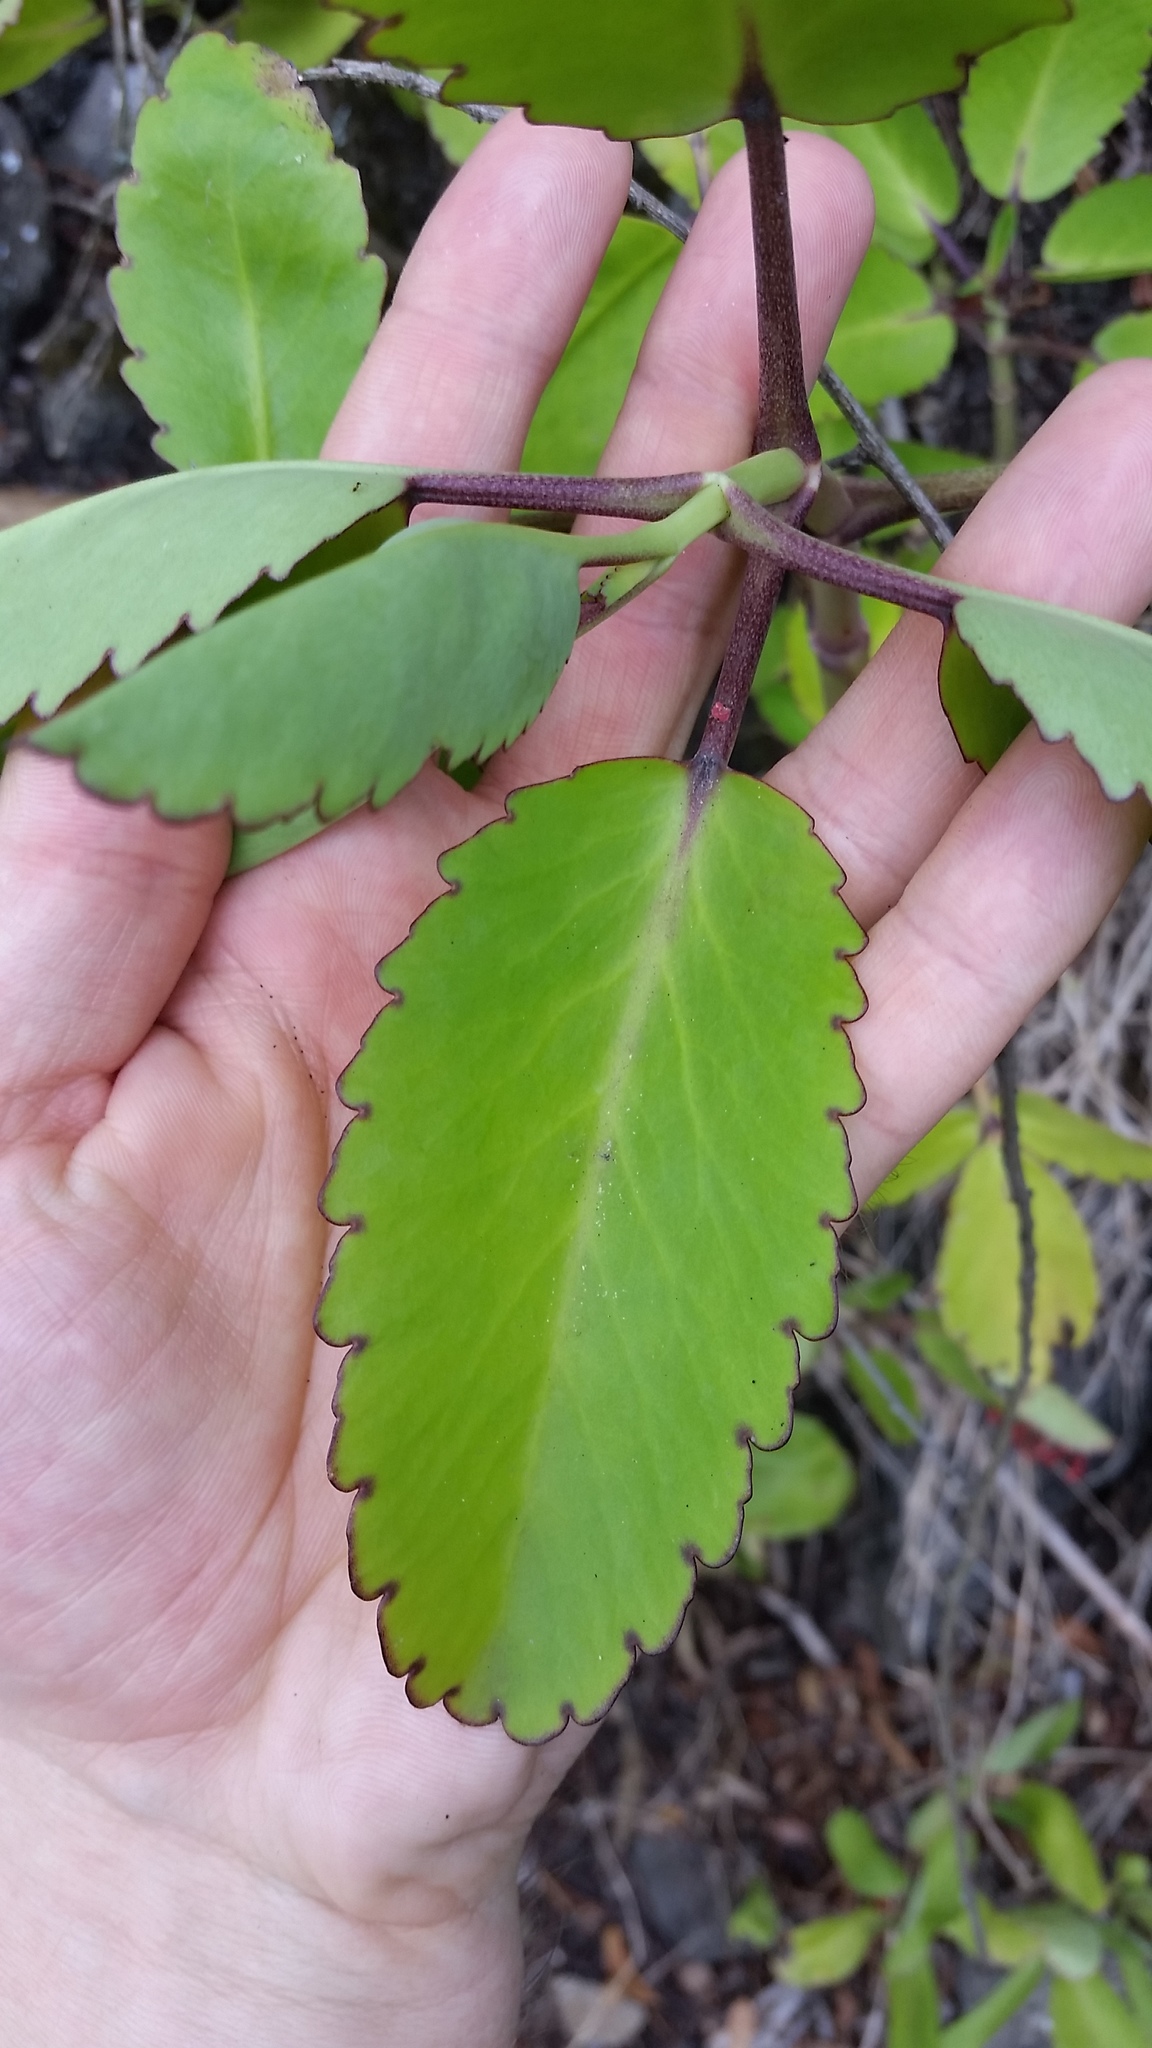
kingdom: Plantae
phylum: Tracheophyta
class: Magnoliopsida
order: Saxifragales
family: Crassulaceae
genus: Kalanchoe
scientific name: Kalanchoe pinnata
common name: Cathedral bells
